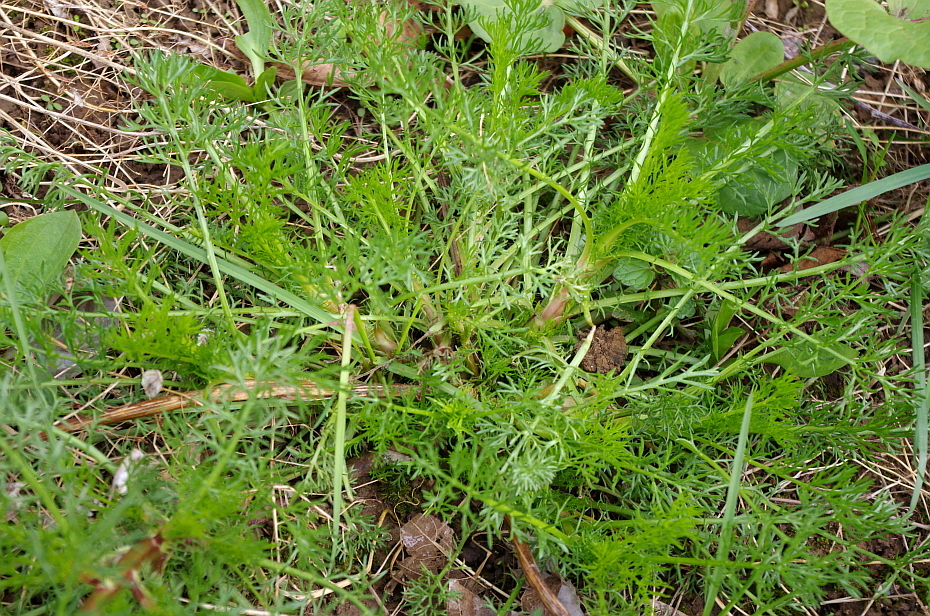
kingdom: Plantae
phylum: Tracheophyta
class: Magnoliopsida
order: Asterales
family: Asteraceae
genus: Tripleurospermum
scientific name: Tripleurospermum inodorum
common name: Scentless mayweed
